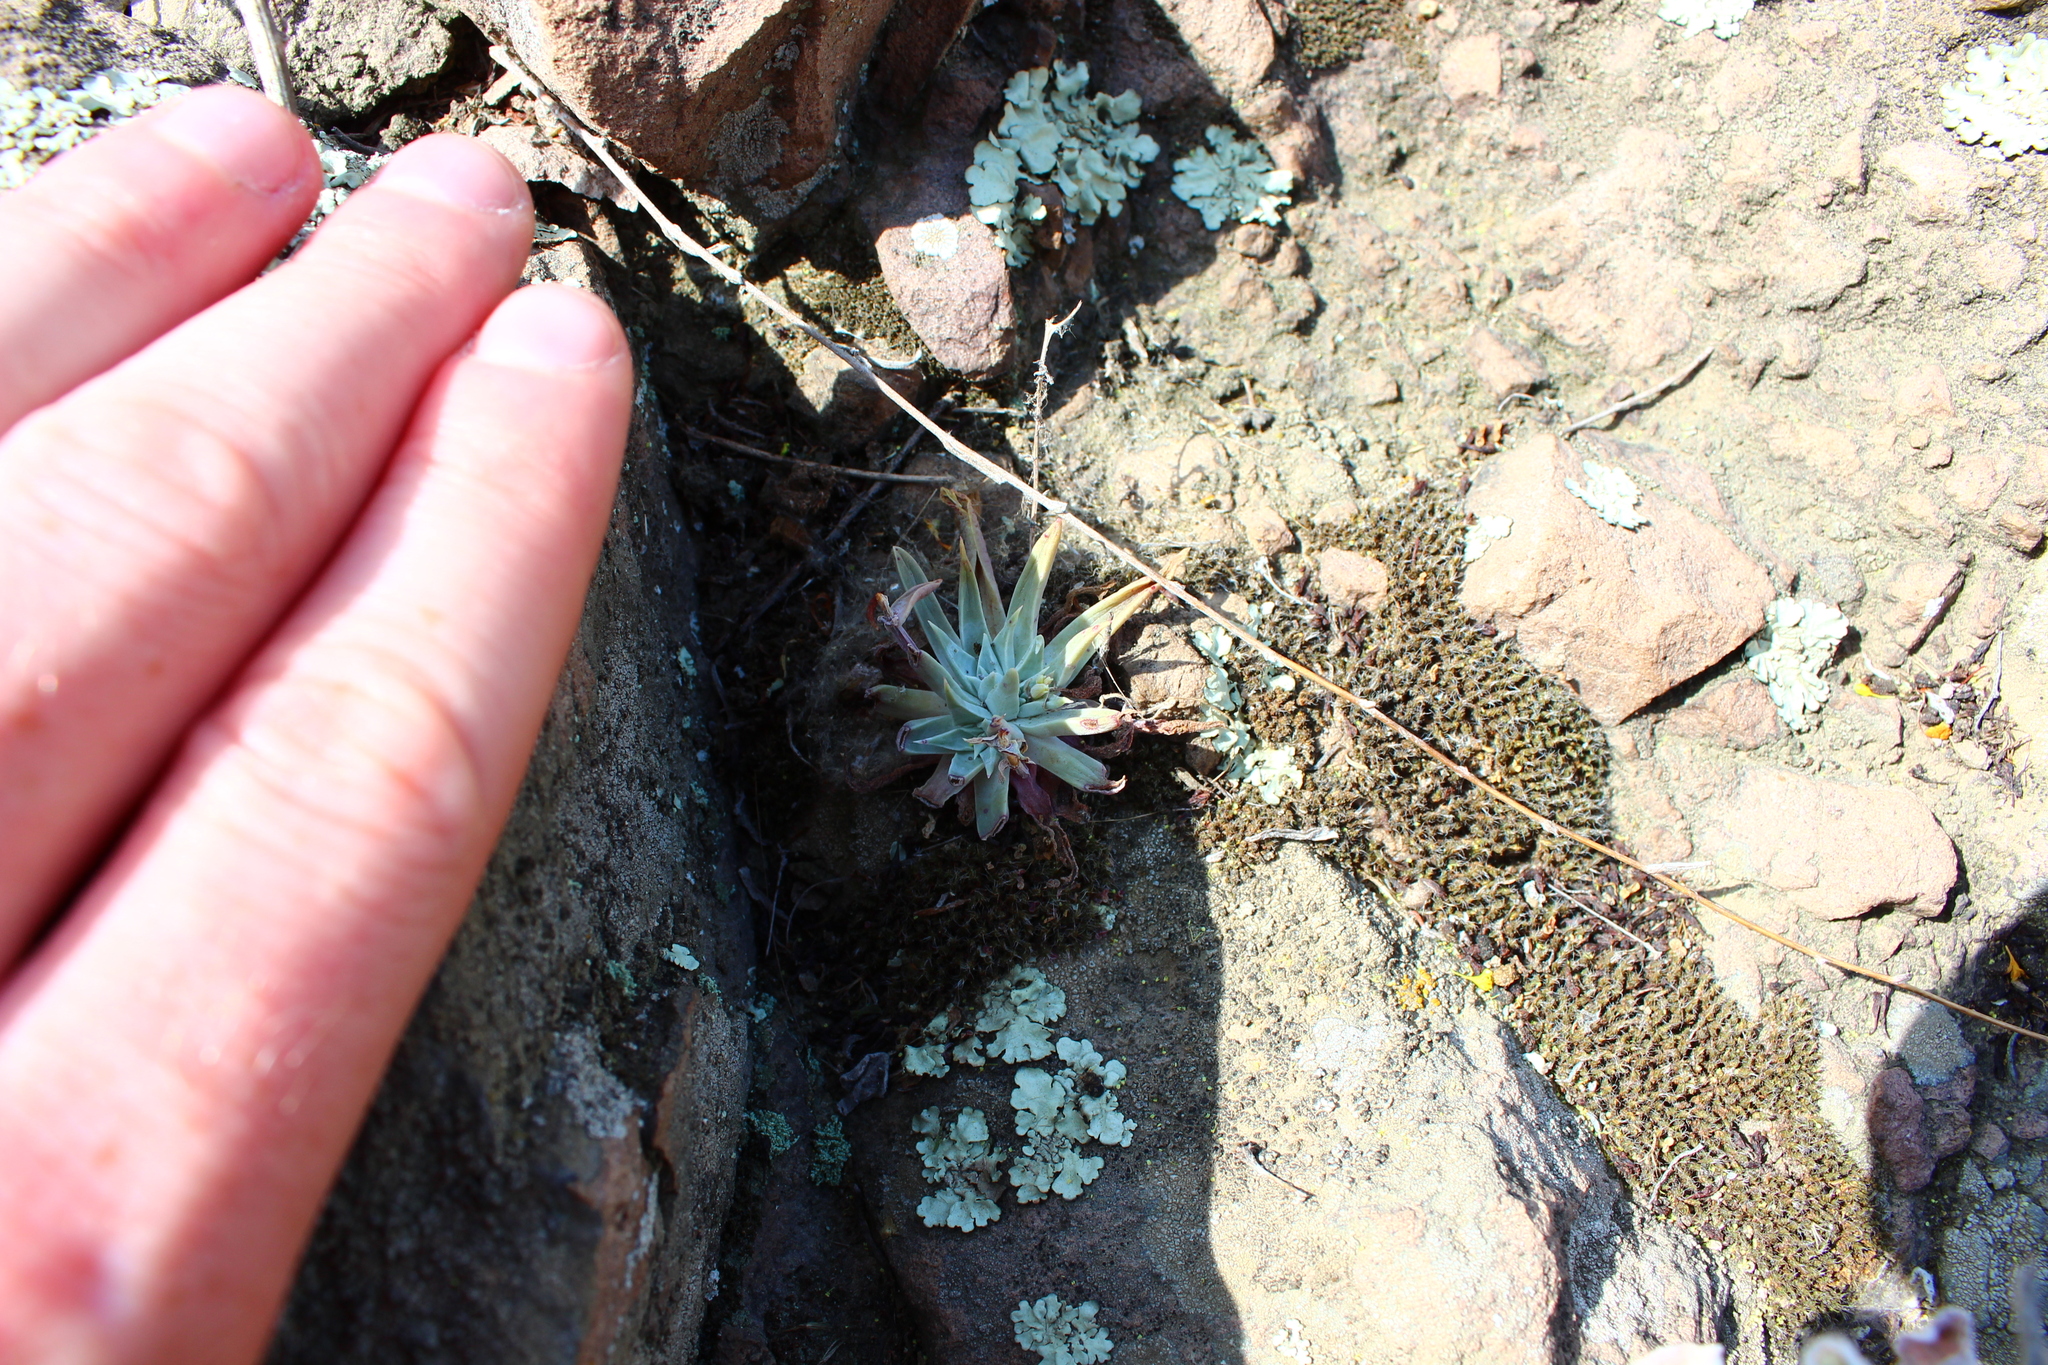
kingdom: Plantae
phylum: Tracheophyta
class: Magnoliopsida
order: Saxifragales
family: Crassulaceae
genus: Dudleya
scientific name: Dudleya verityi
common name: Verity dudleya
